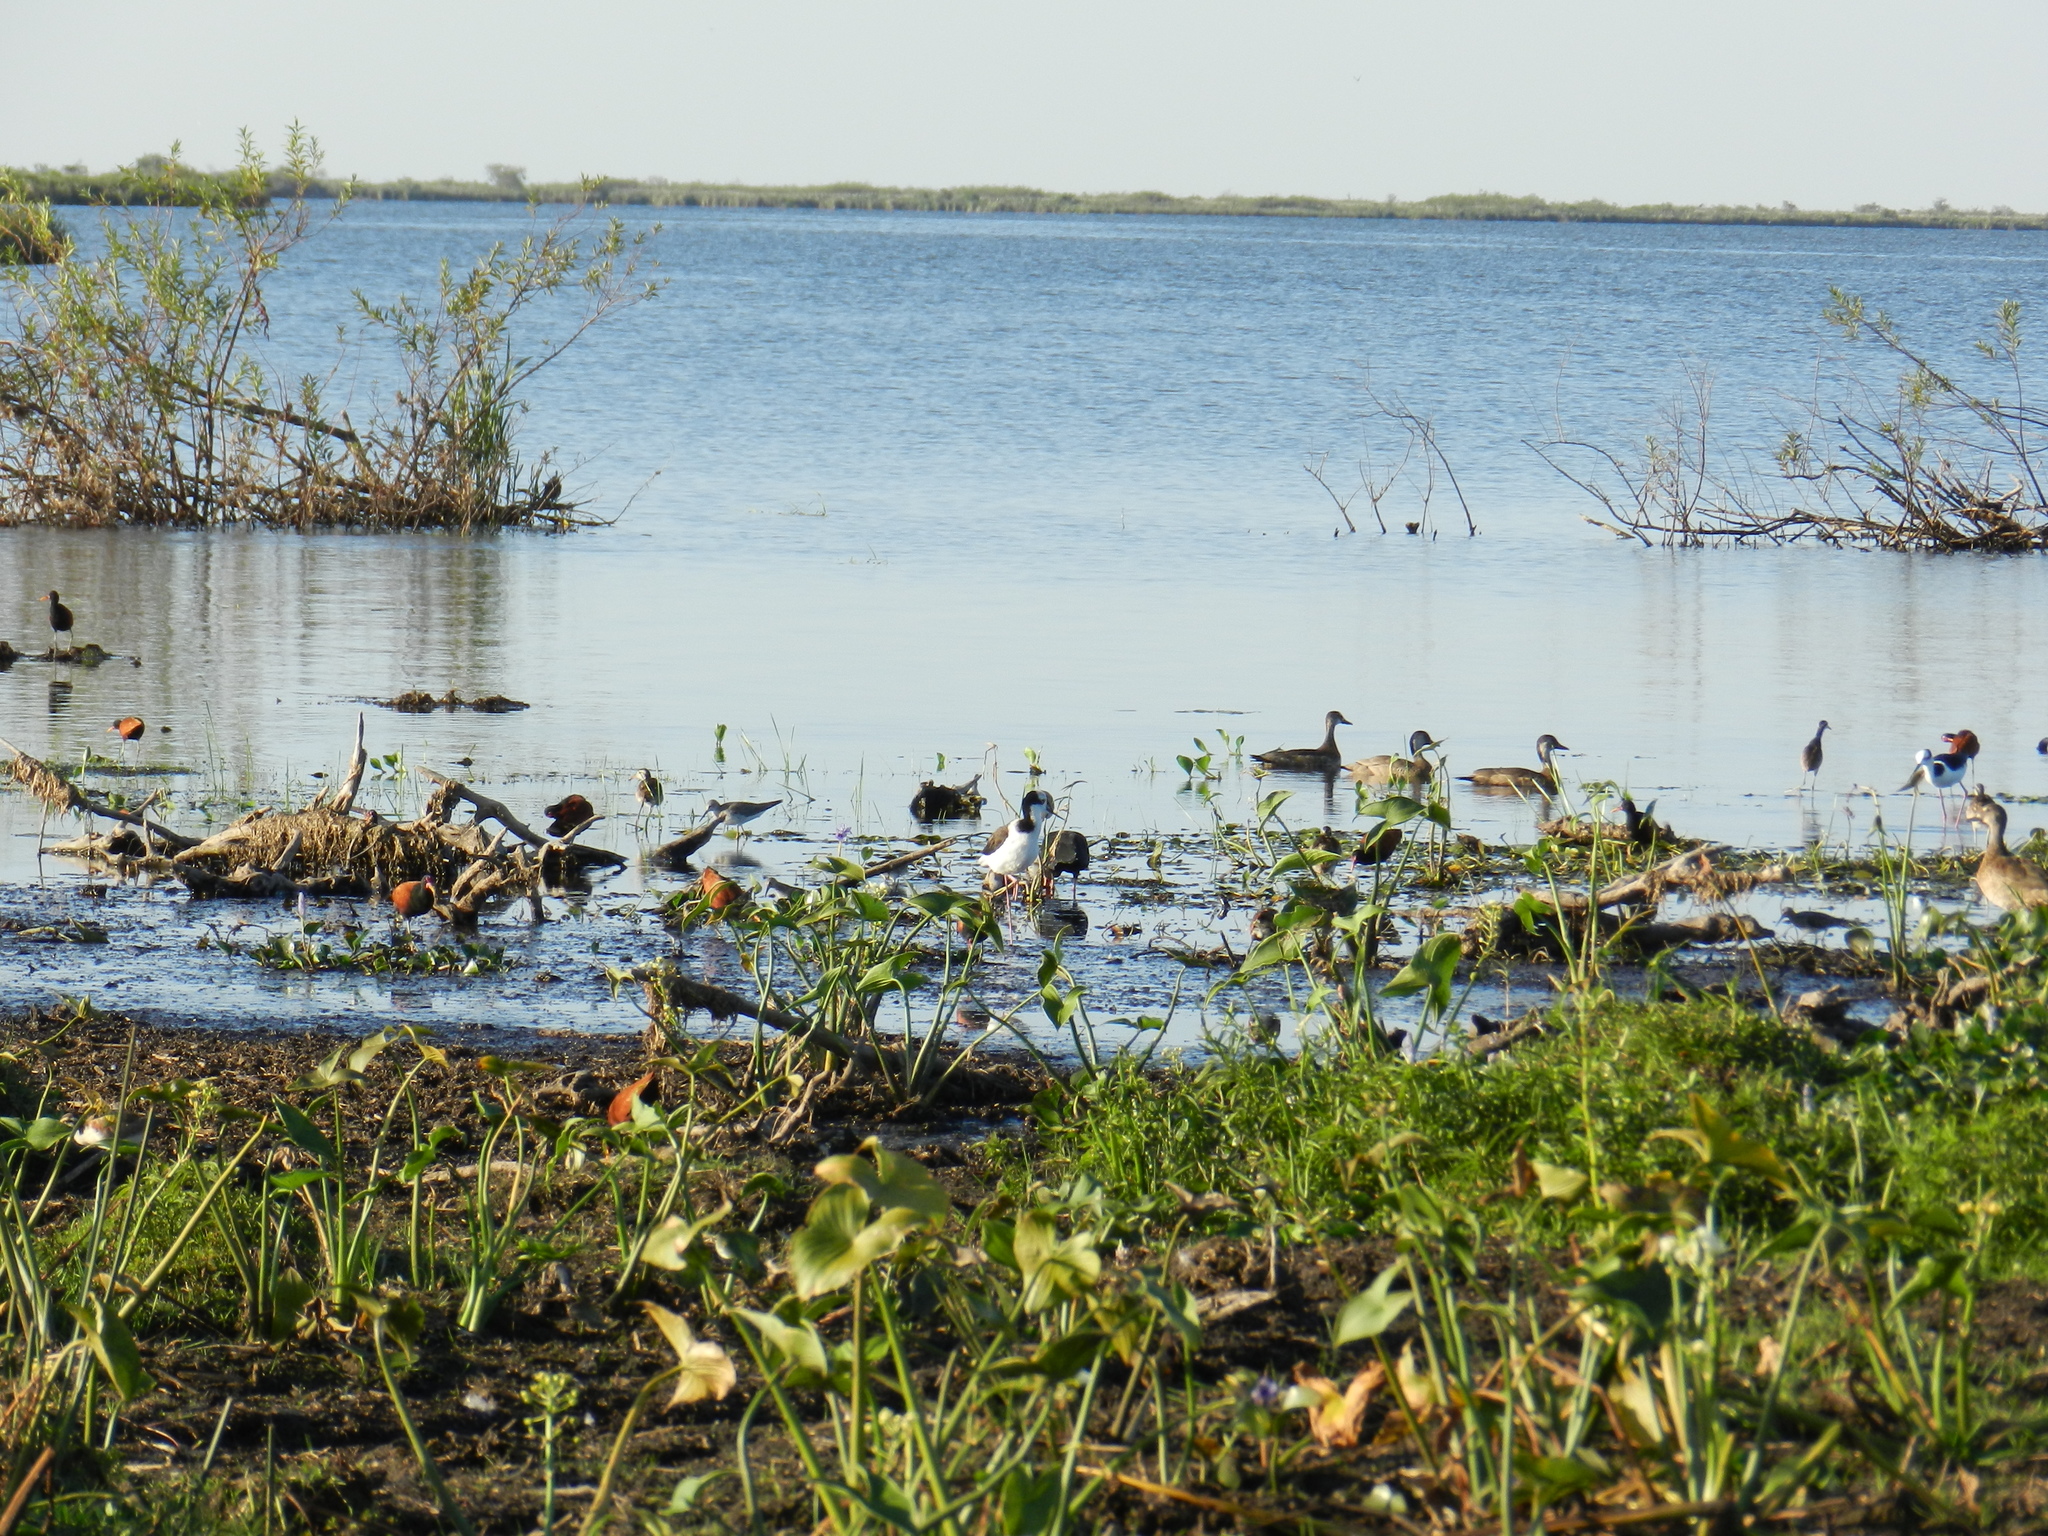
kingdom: Animalia
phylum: Chordata
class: Aves
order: Anseriformes
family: Anatidae
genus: Amazonetta
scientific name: Amazonetta brasiliensis
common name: Brazilian teal
